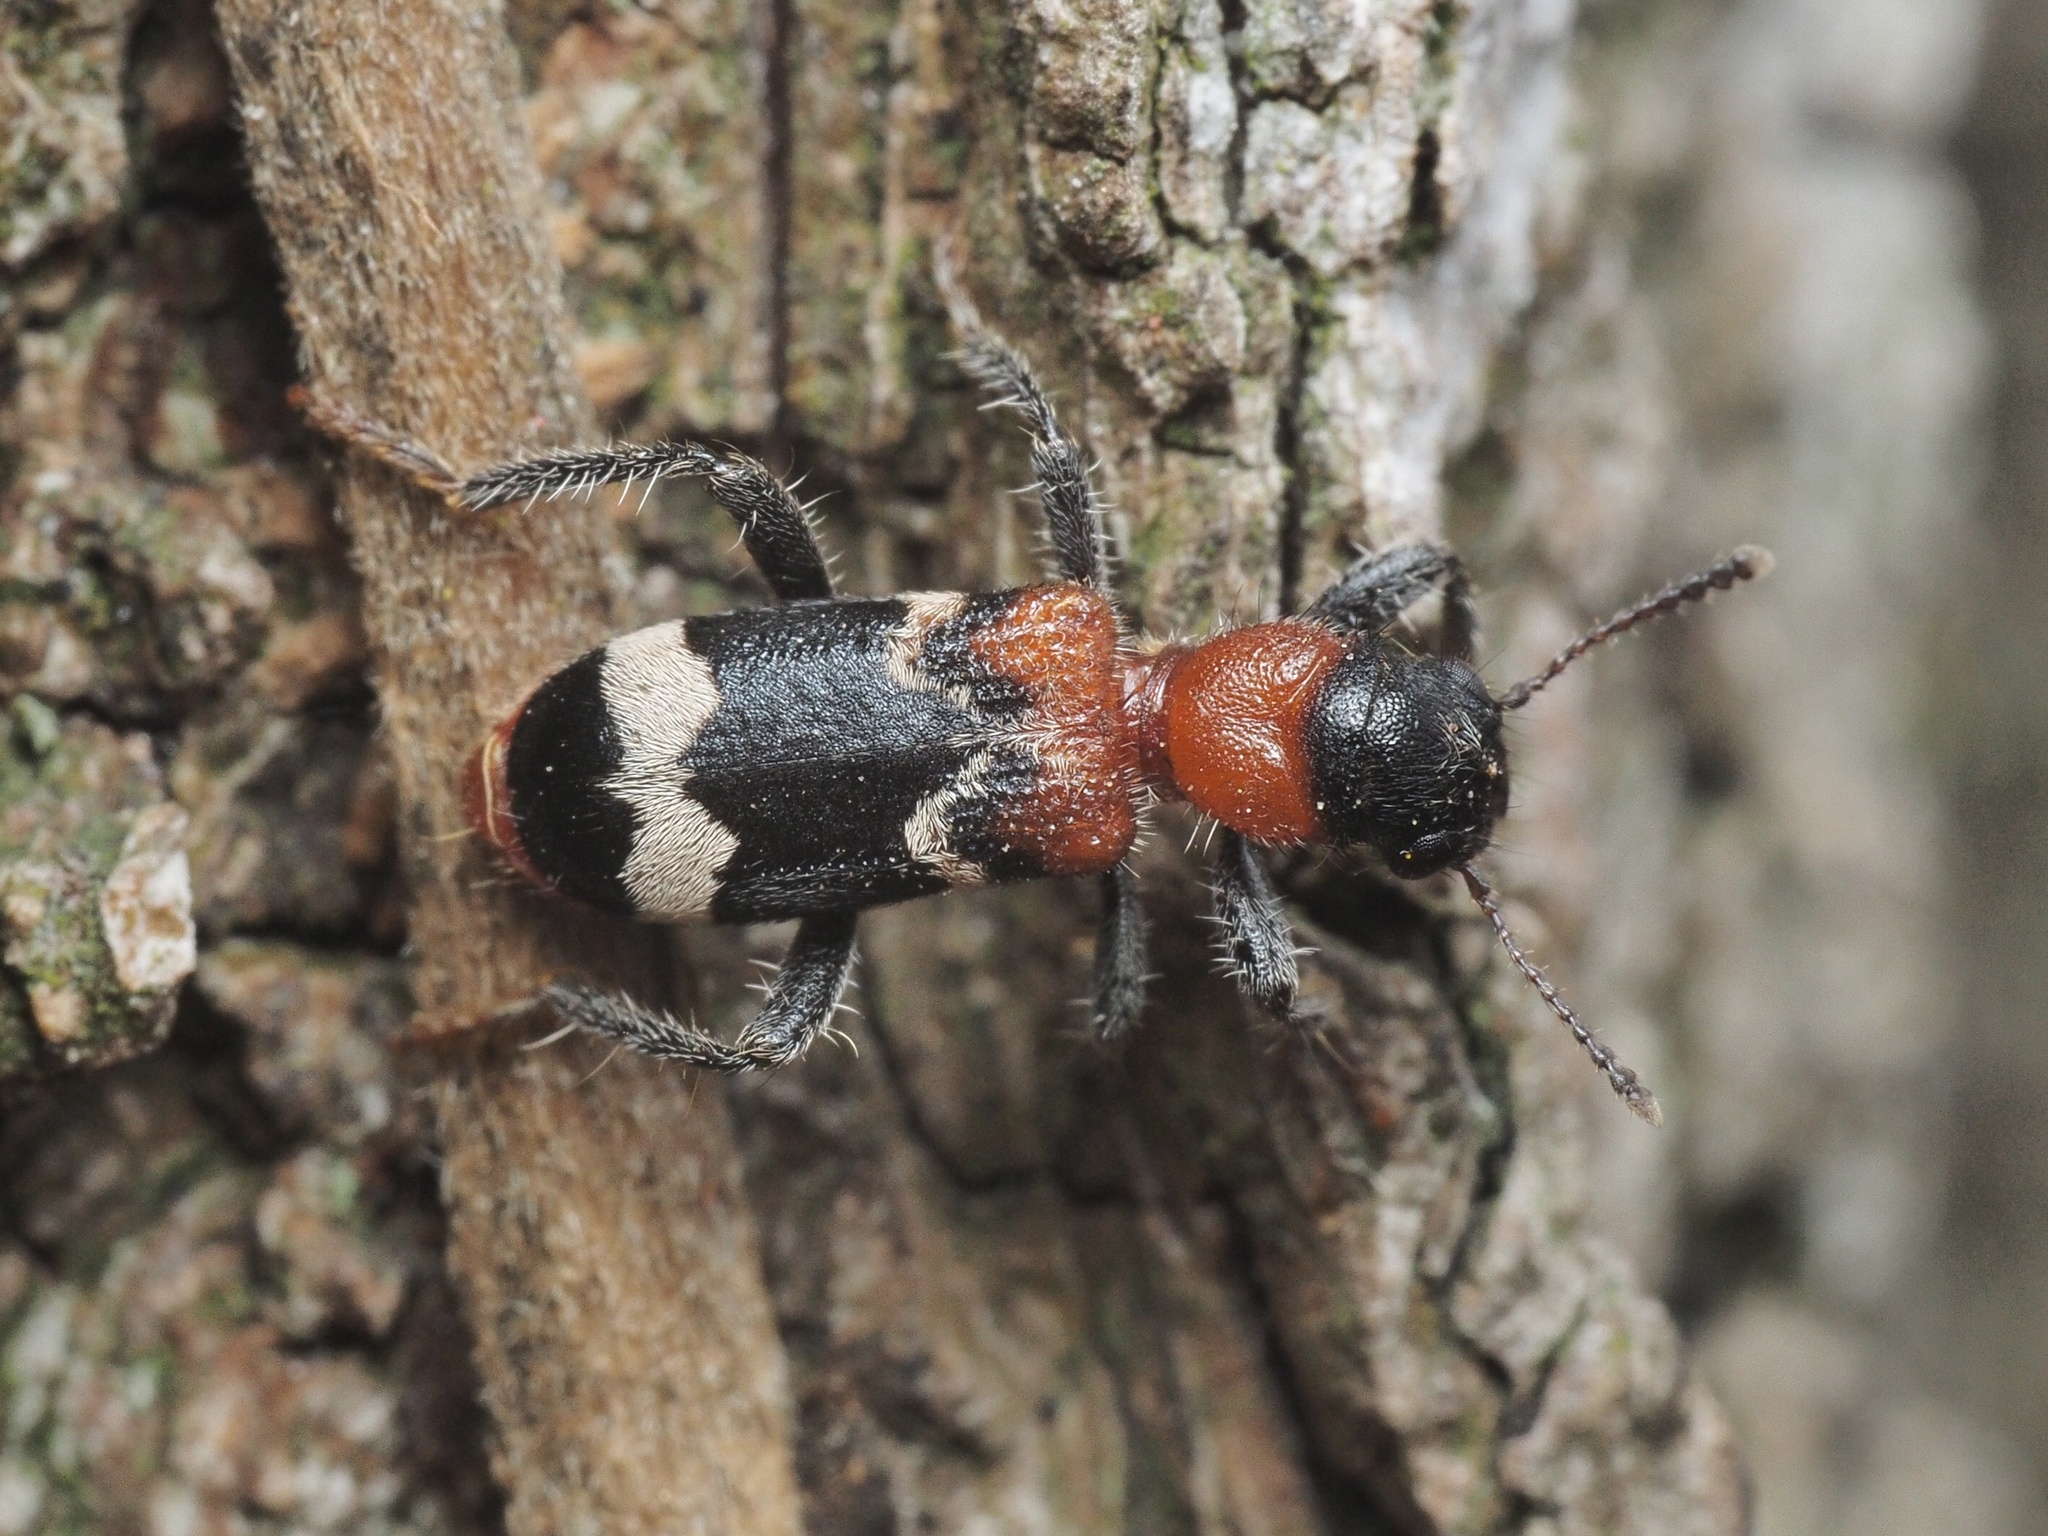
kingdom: Animalia
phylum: Arthropoda
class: Insecta
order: Coleoptera
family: Cleridae
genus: Thanasimus
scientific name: Thanasimus formicarius
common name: Ant beetle
